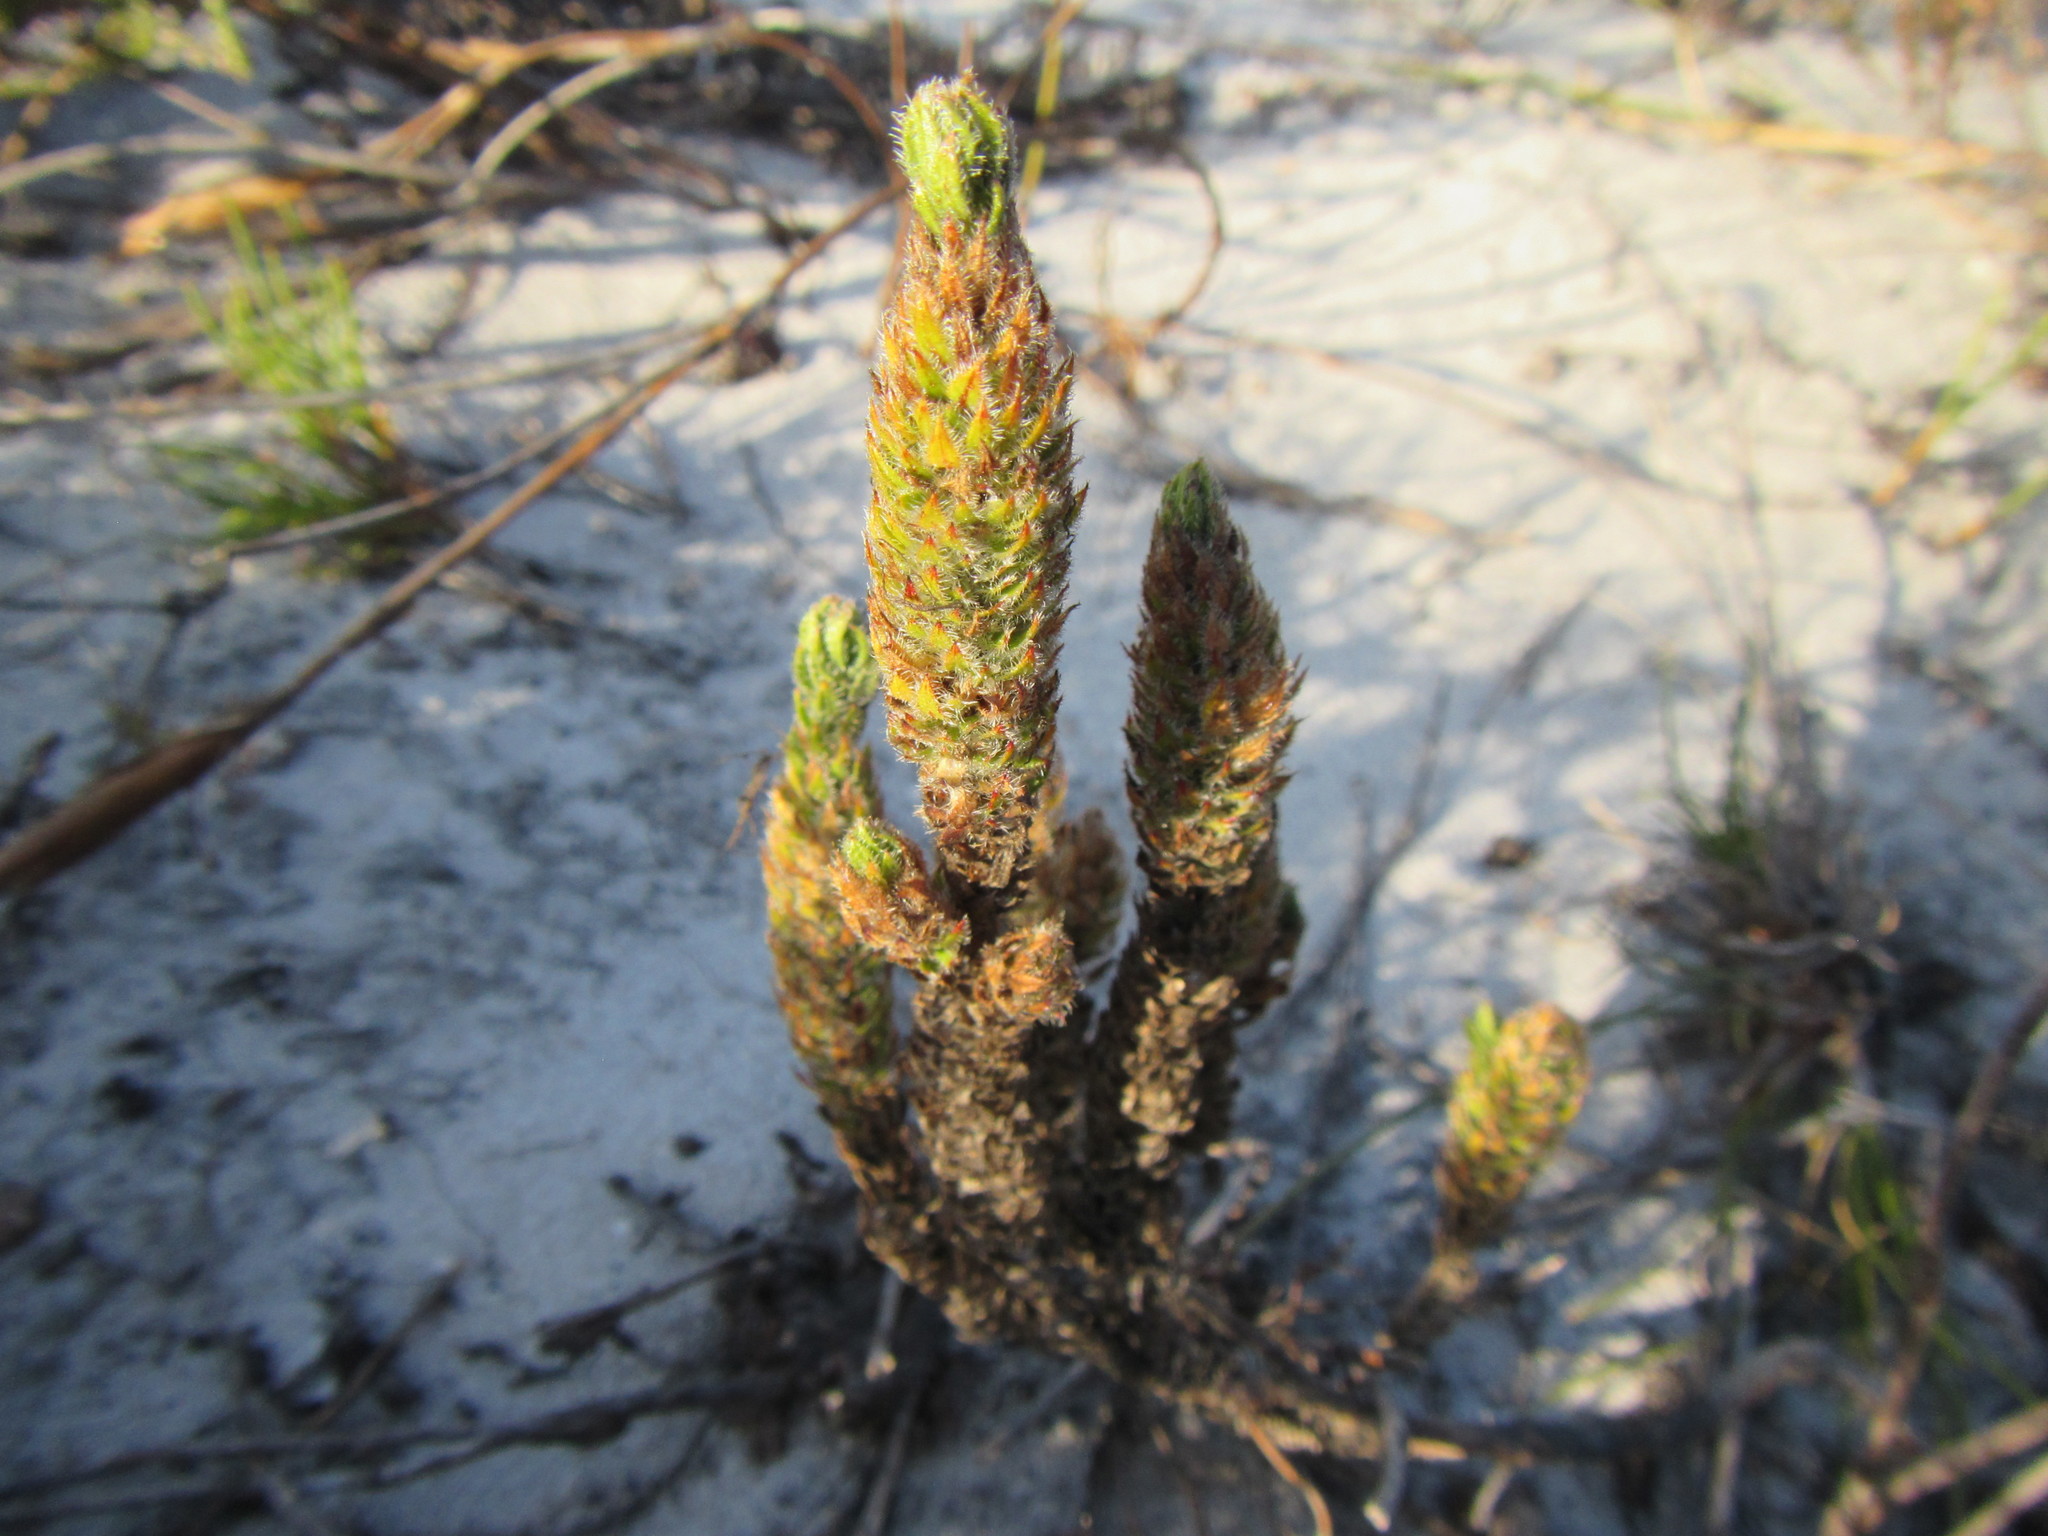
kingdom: Plantae
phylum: Tracheophyta
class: Magnoliopsida
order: Gentianales
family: Rubiaceae
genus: Anthospermum
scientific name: Anthospermum bergianum
